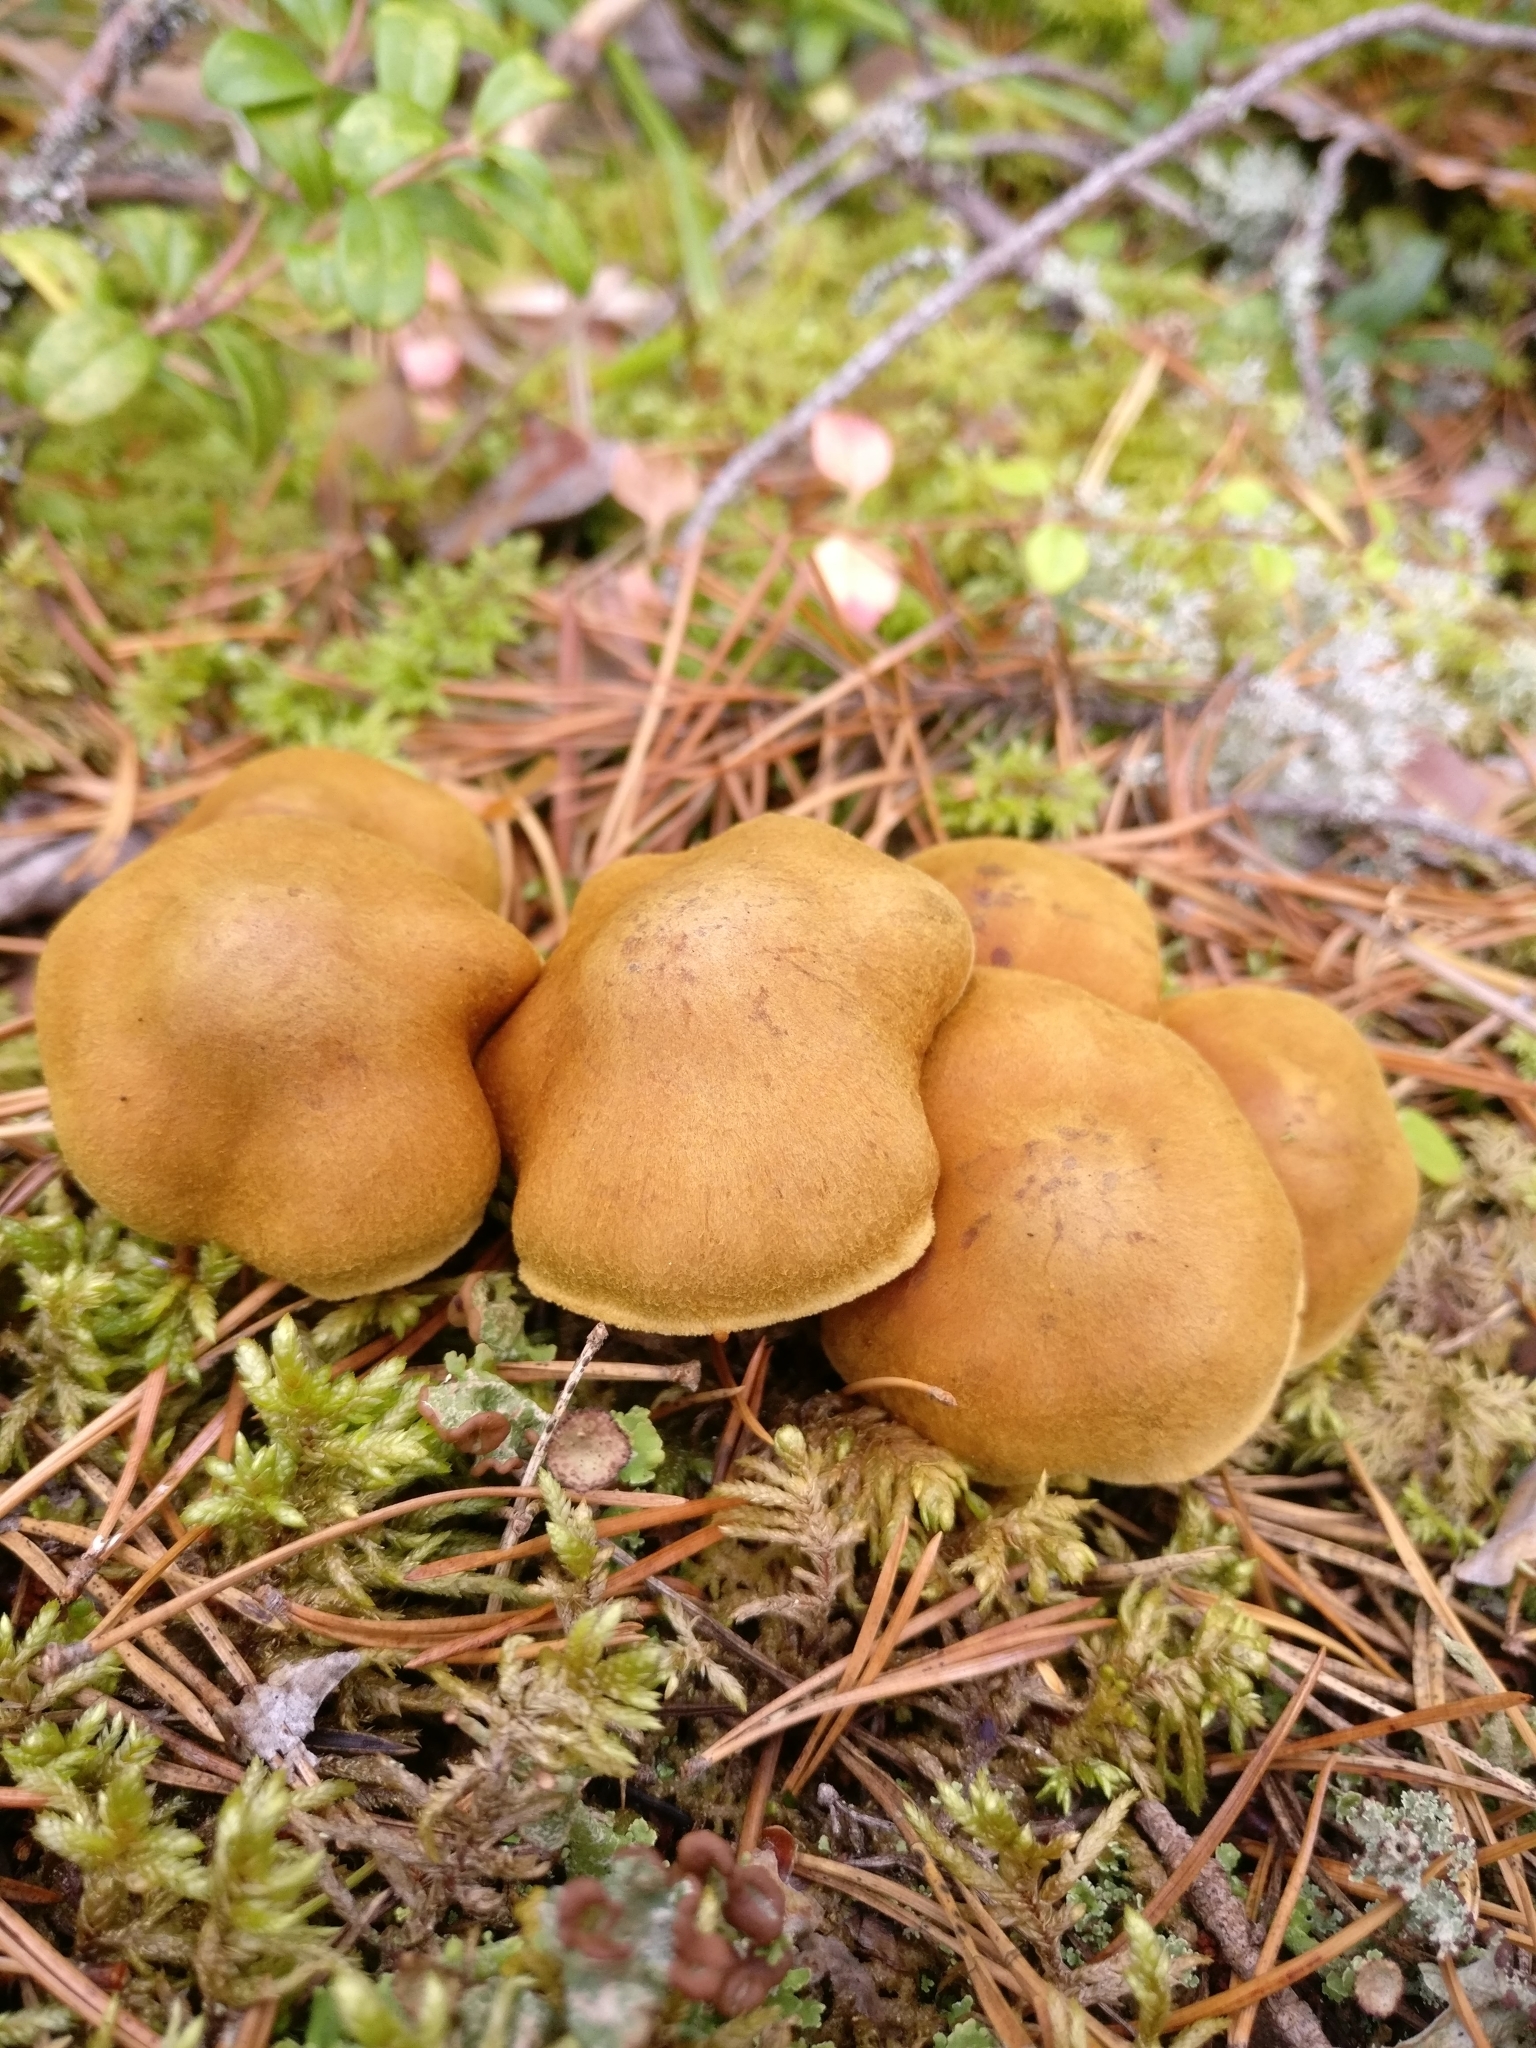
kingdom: Fungi
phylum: Basidiomycota
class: Agaricomycetes
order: Agaricales
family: Cortinariaceae
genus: Cortinarius
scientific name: Cortinarius semisanguineus
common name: Surprise webcap
